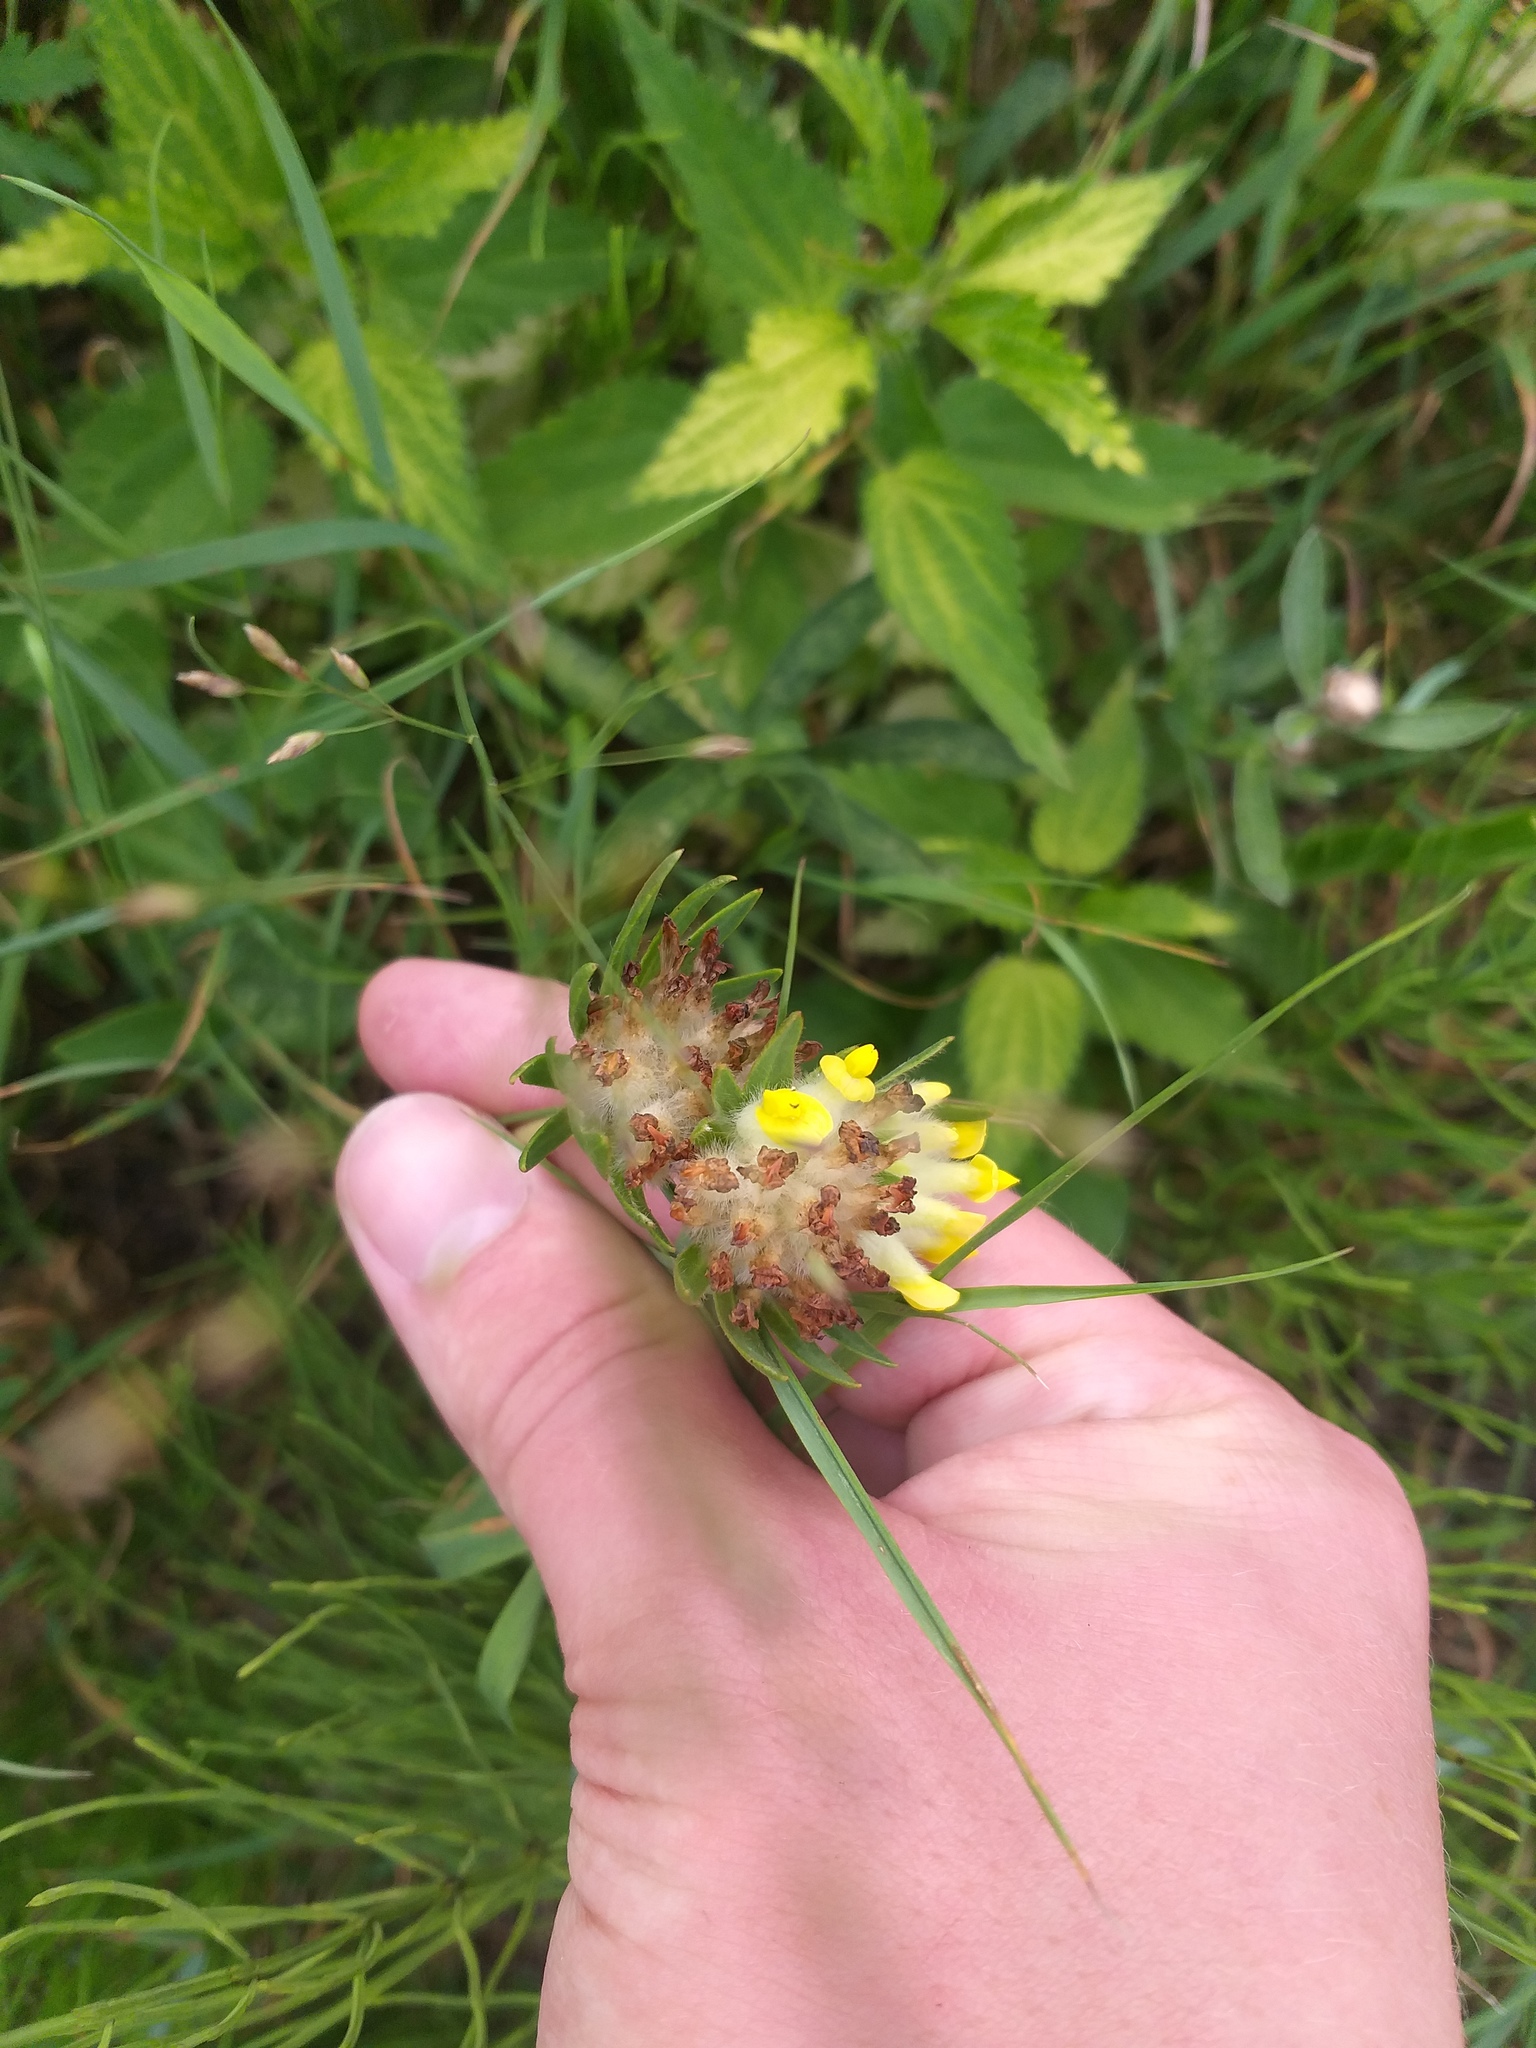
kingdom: Plantae
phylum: Tracheophyta
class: Magnoliopsida
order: Fabales
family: Fabaceae
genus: Anthyllis
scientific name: Anthyllis vulneraria
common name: Kidney vetch
